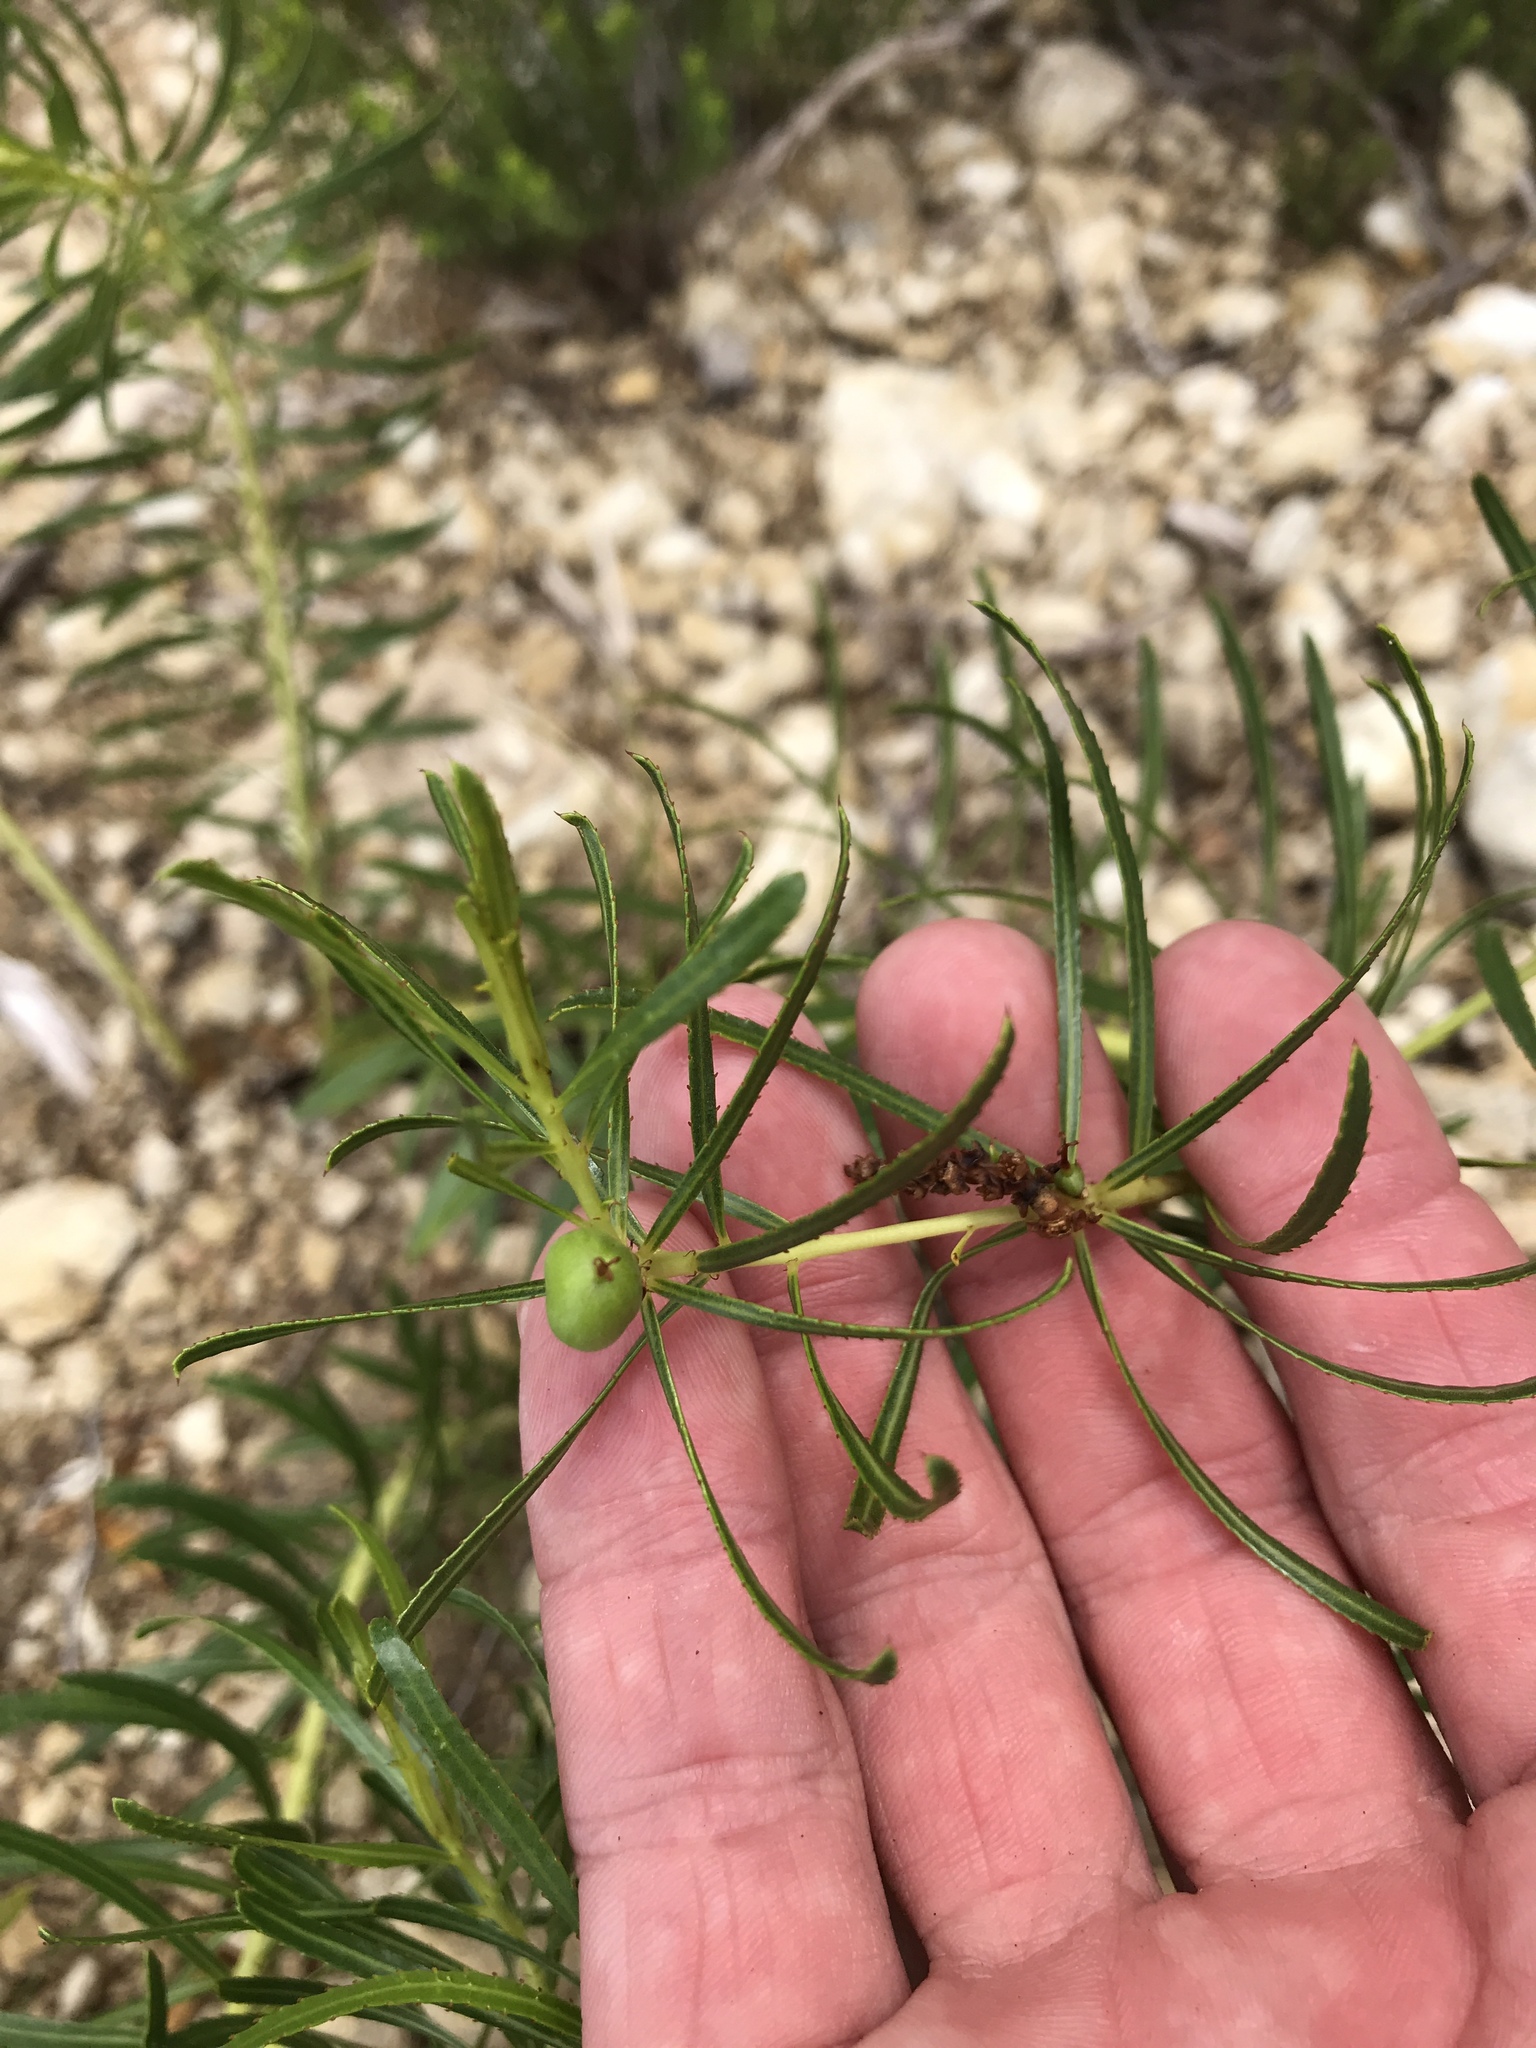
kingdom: Plantae
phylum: Tracheophyta
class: Magnoliopsida
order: Malpighiales
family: Euphorbiaceae
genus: Stillingia
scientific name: Stillingia texana
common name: Texas stillingia
